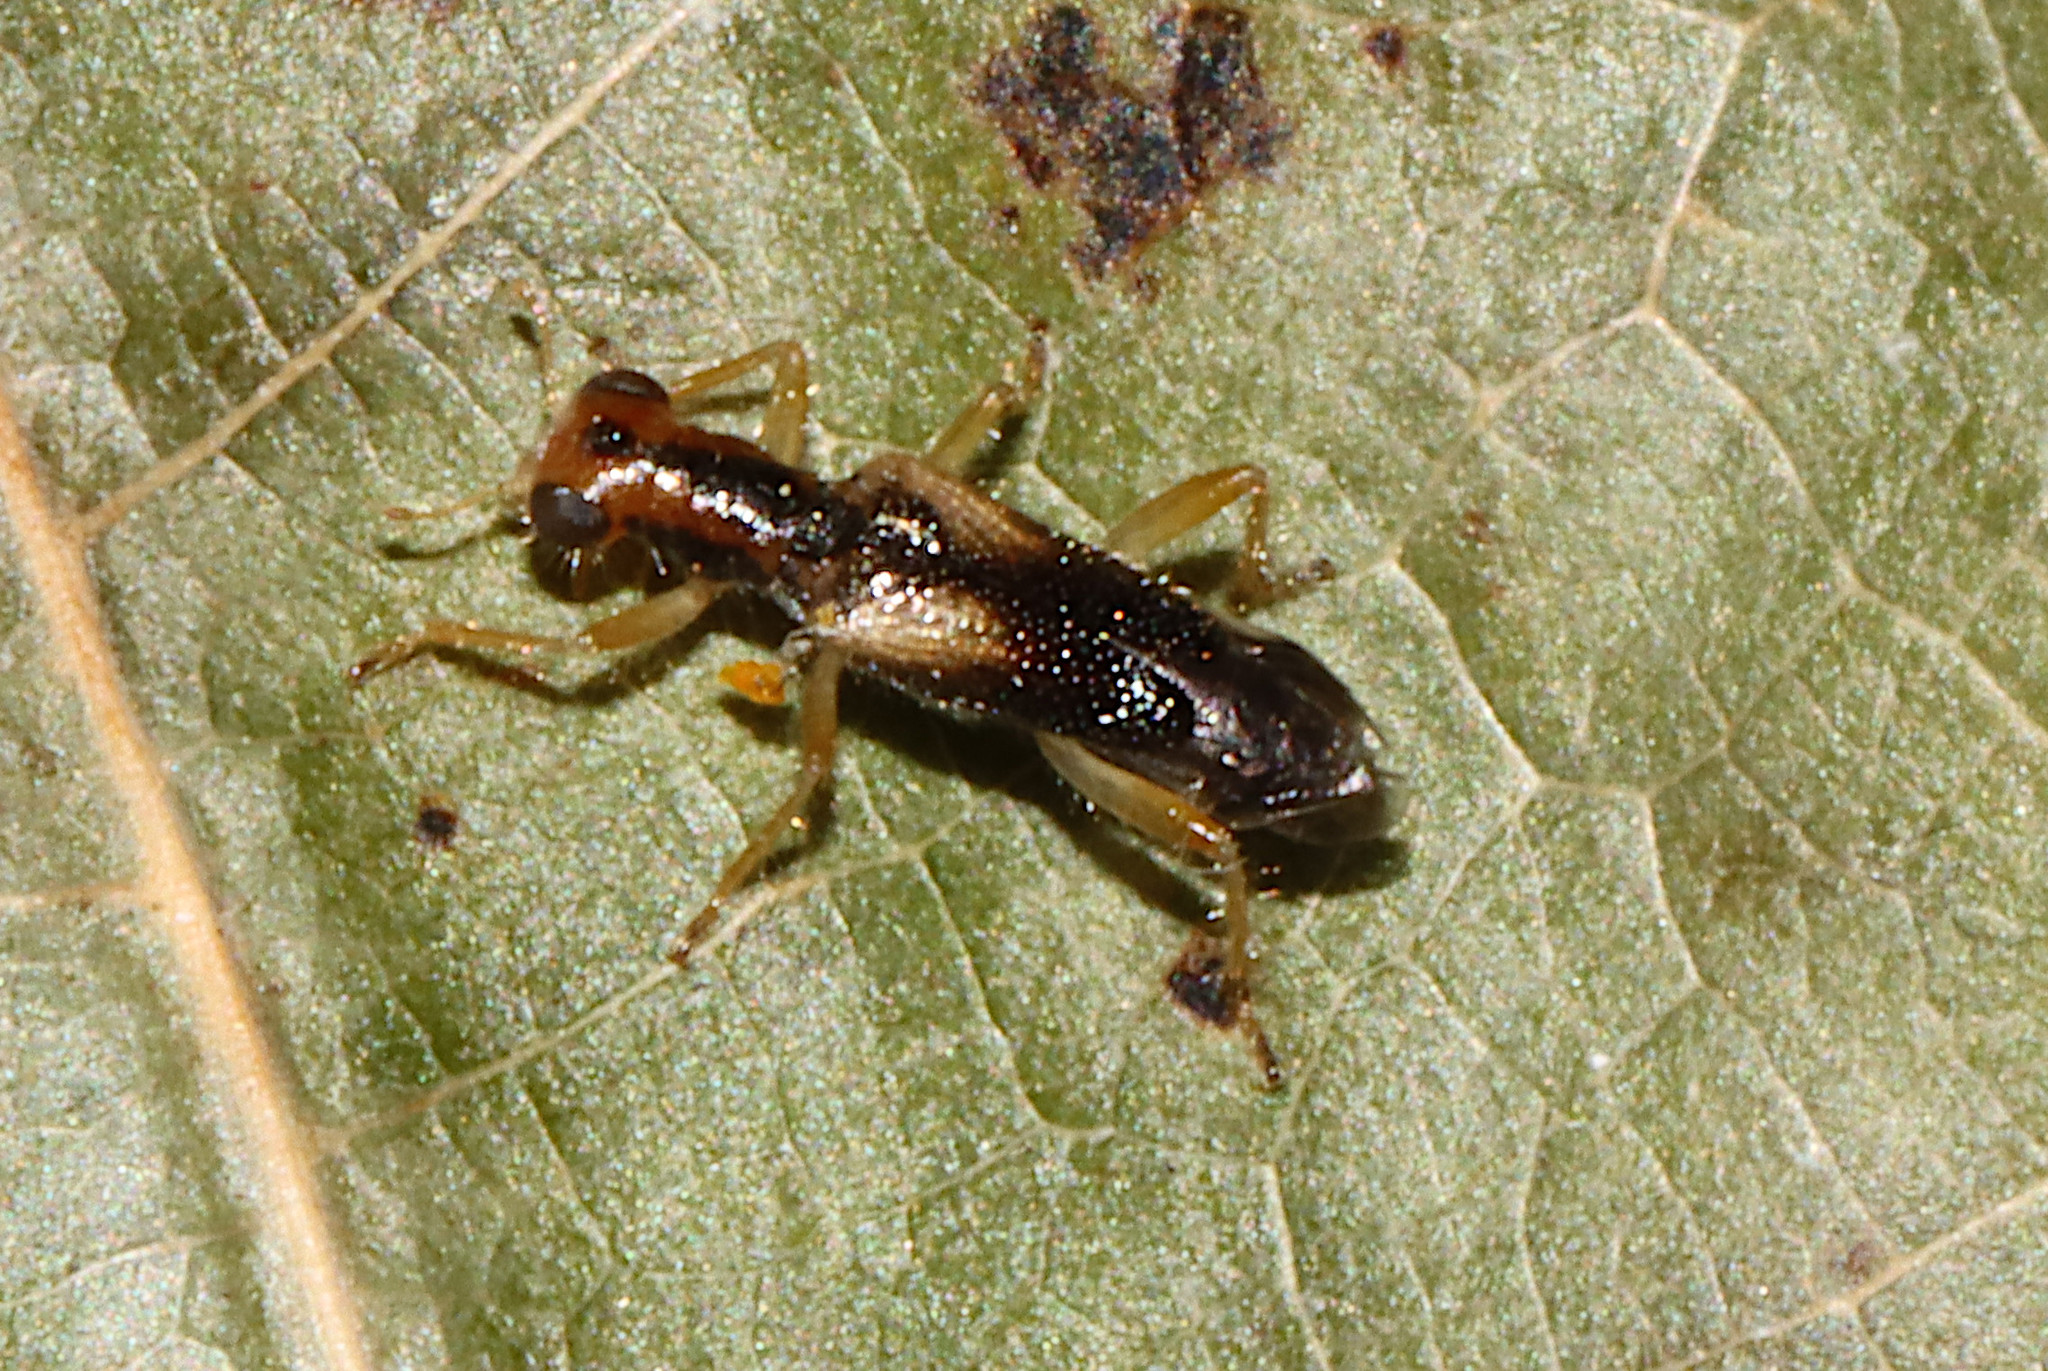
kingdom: Animalia
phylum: Arthropoda
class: Insecta
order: Coleoptera
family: Cleridae
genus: Phyllobaenus
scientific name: Phyllobaenus verticalis
